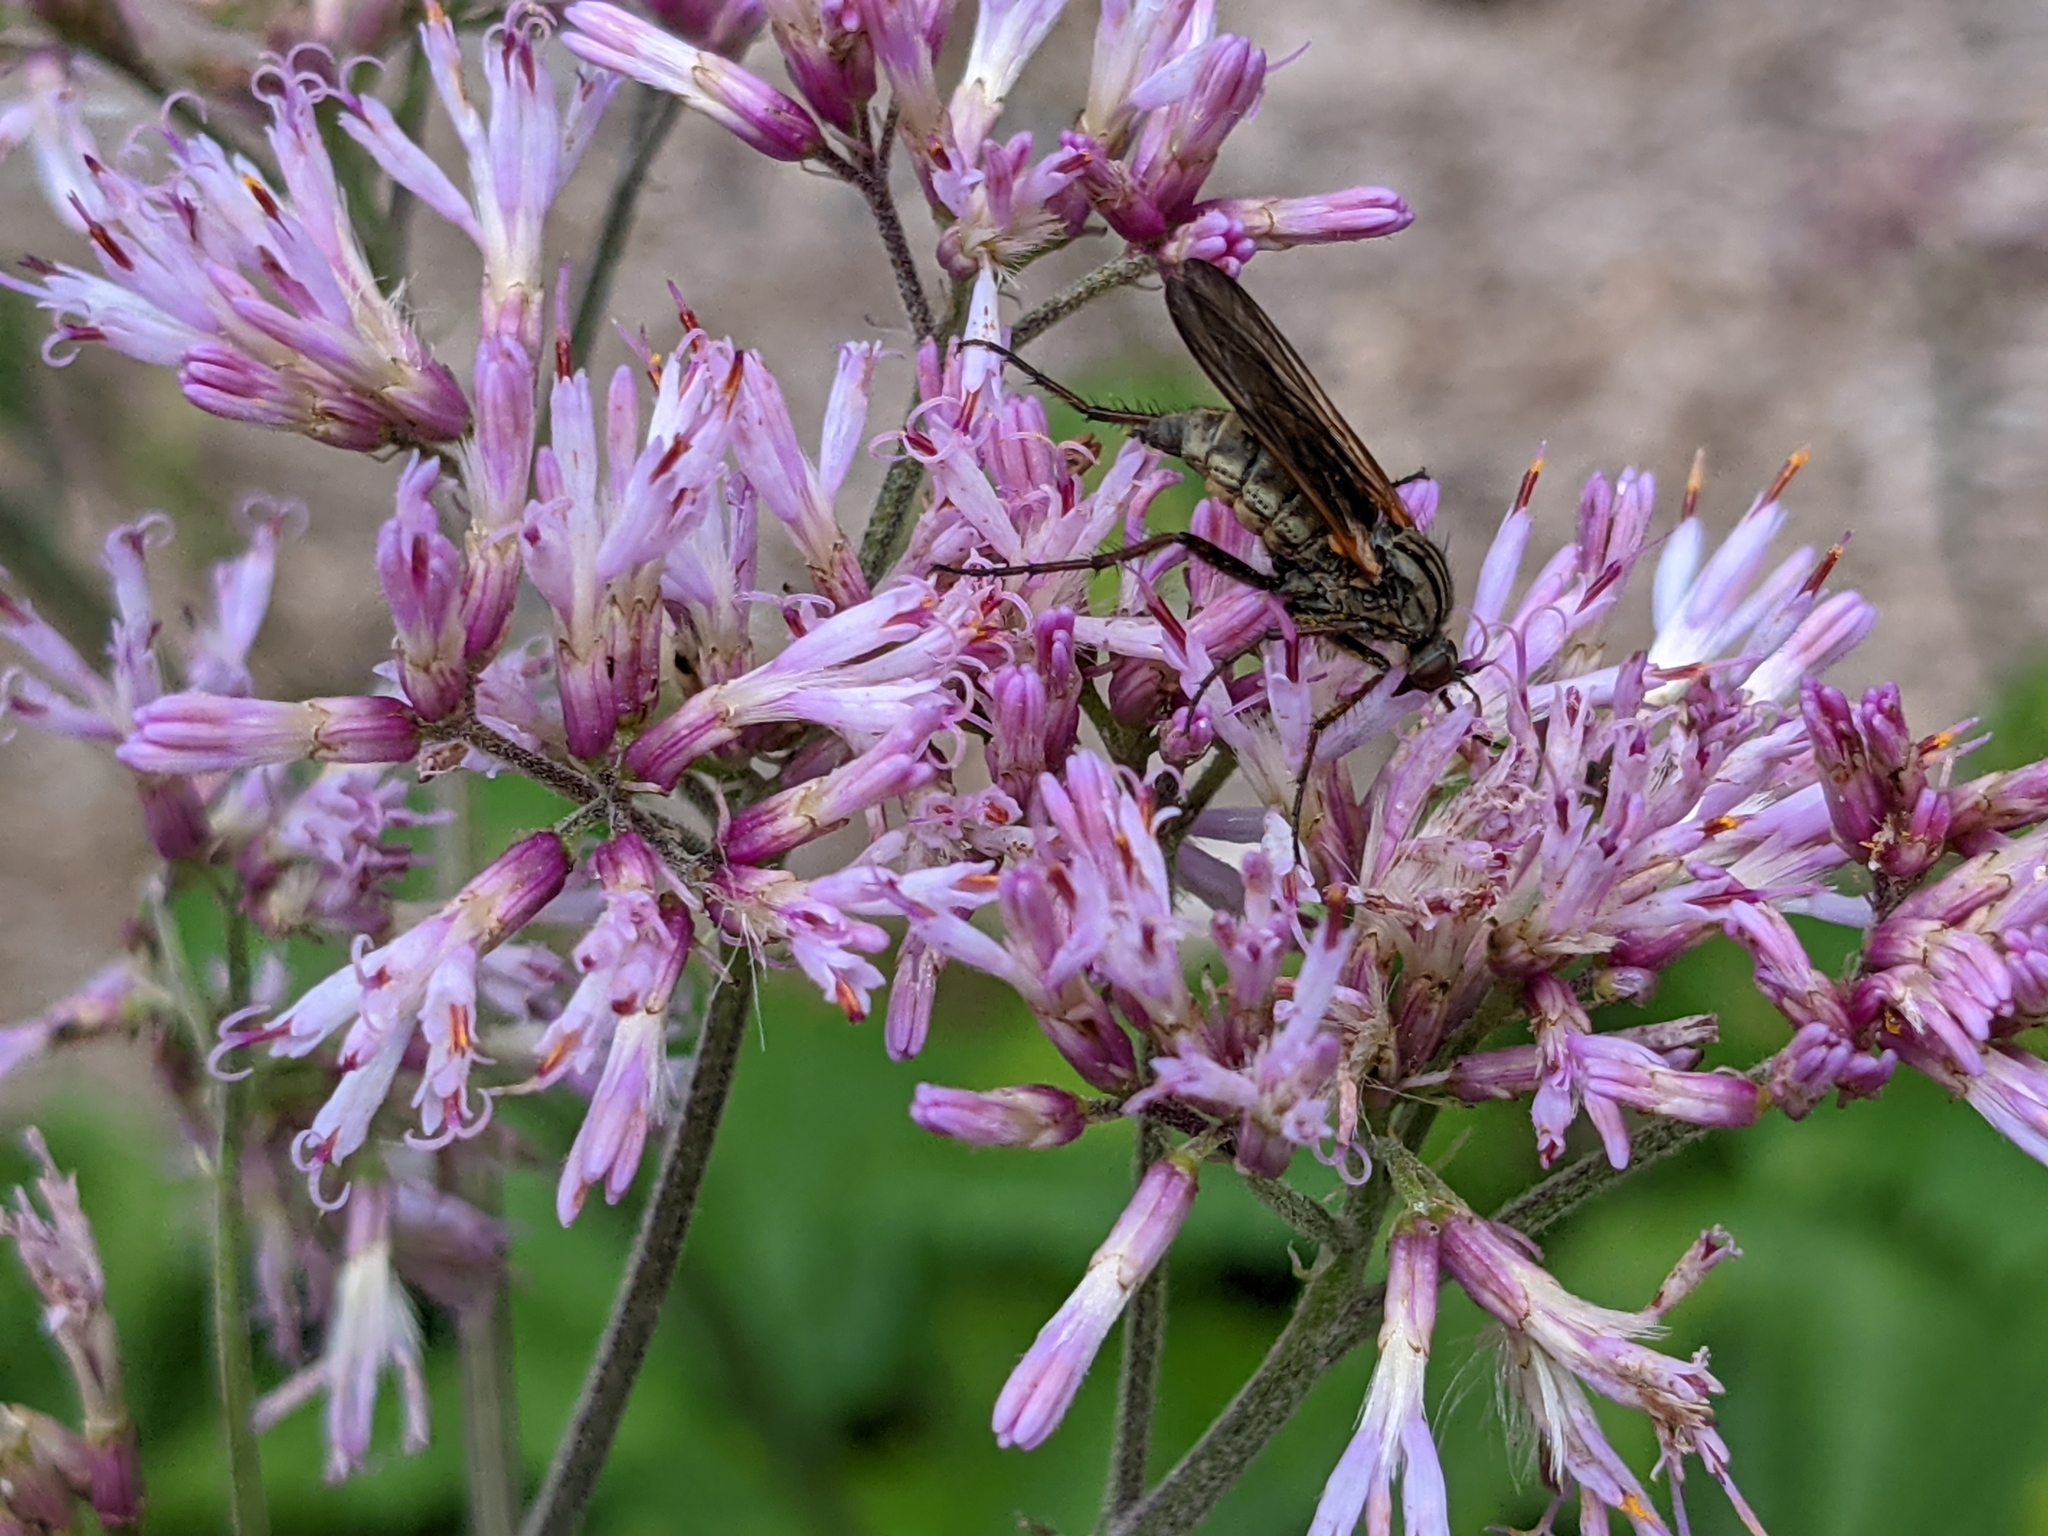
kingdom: Plantae
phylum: Tracheophyta
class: Magnoliopsida
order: Asterales
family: Asteraceae
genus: Adenostyles
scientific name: Adenostyles alliariae
